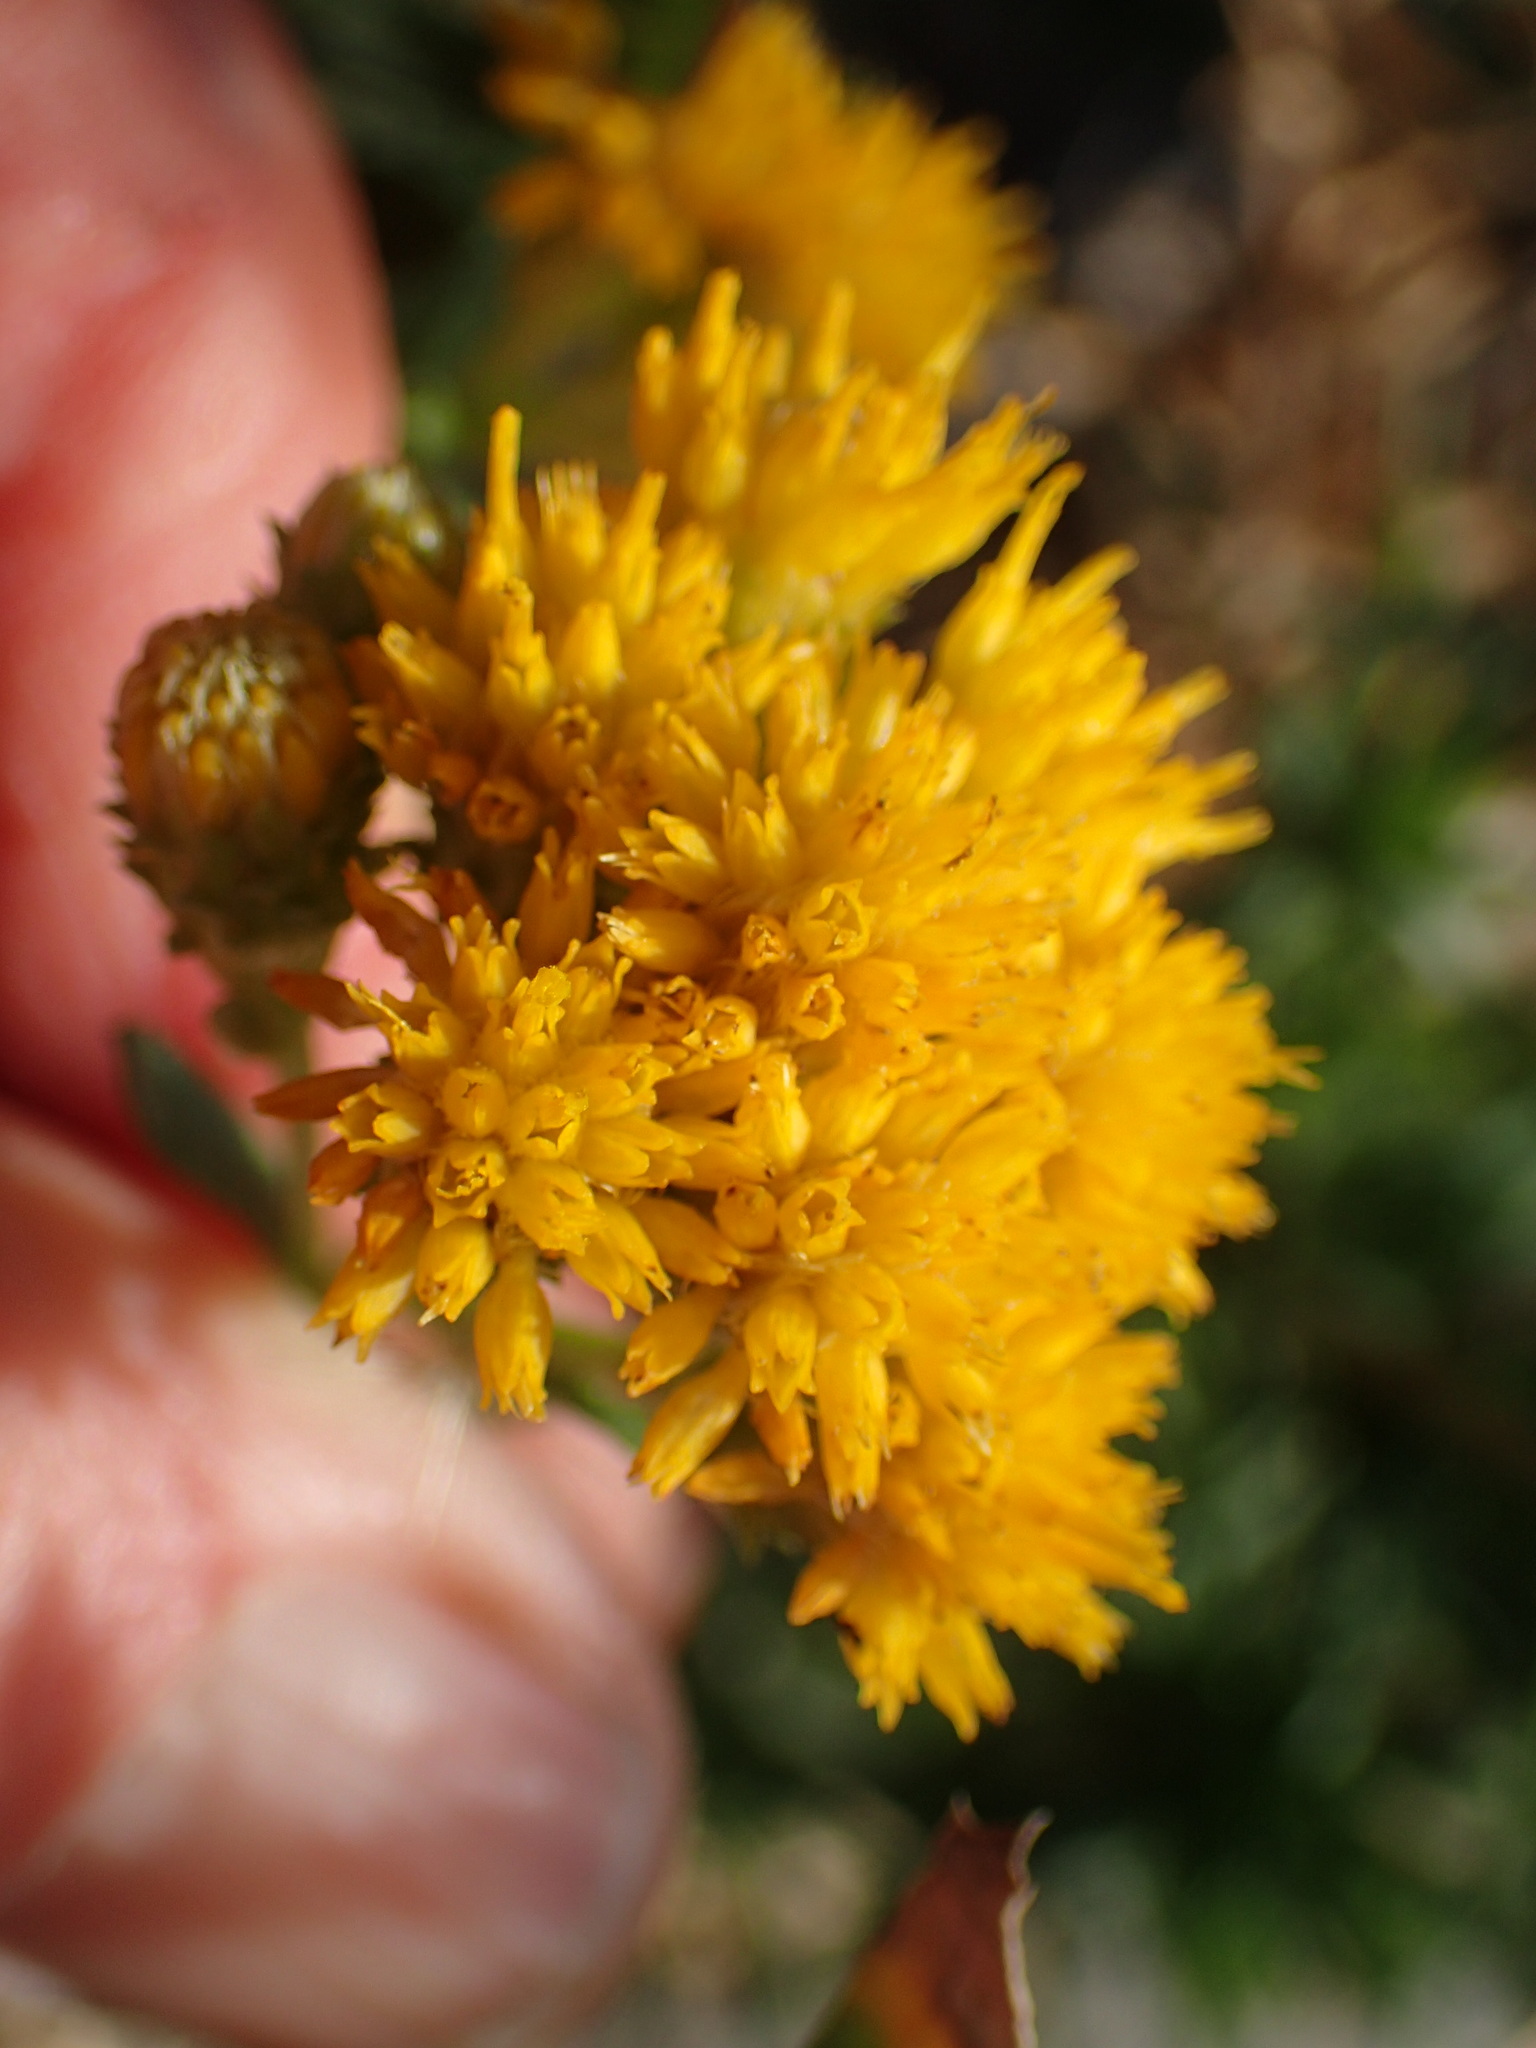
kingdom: Plantae
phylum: Tracheophyta
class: Magnoliopsida
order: Asterales
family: Asteraceae
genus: Isocoma
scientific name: Isocoma menziesii
